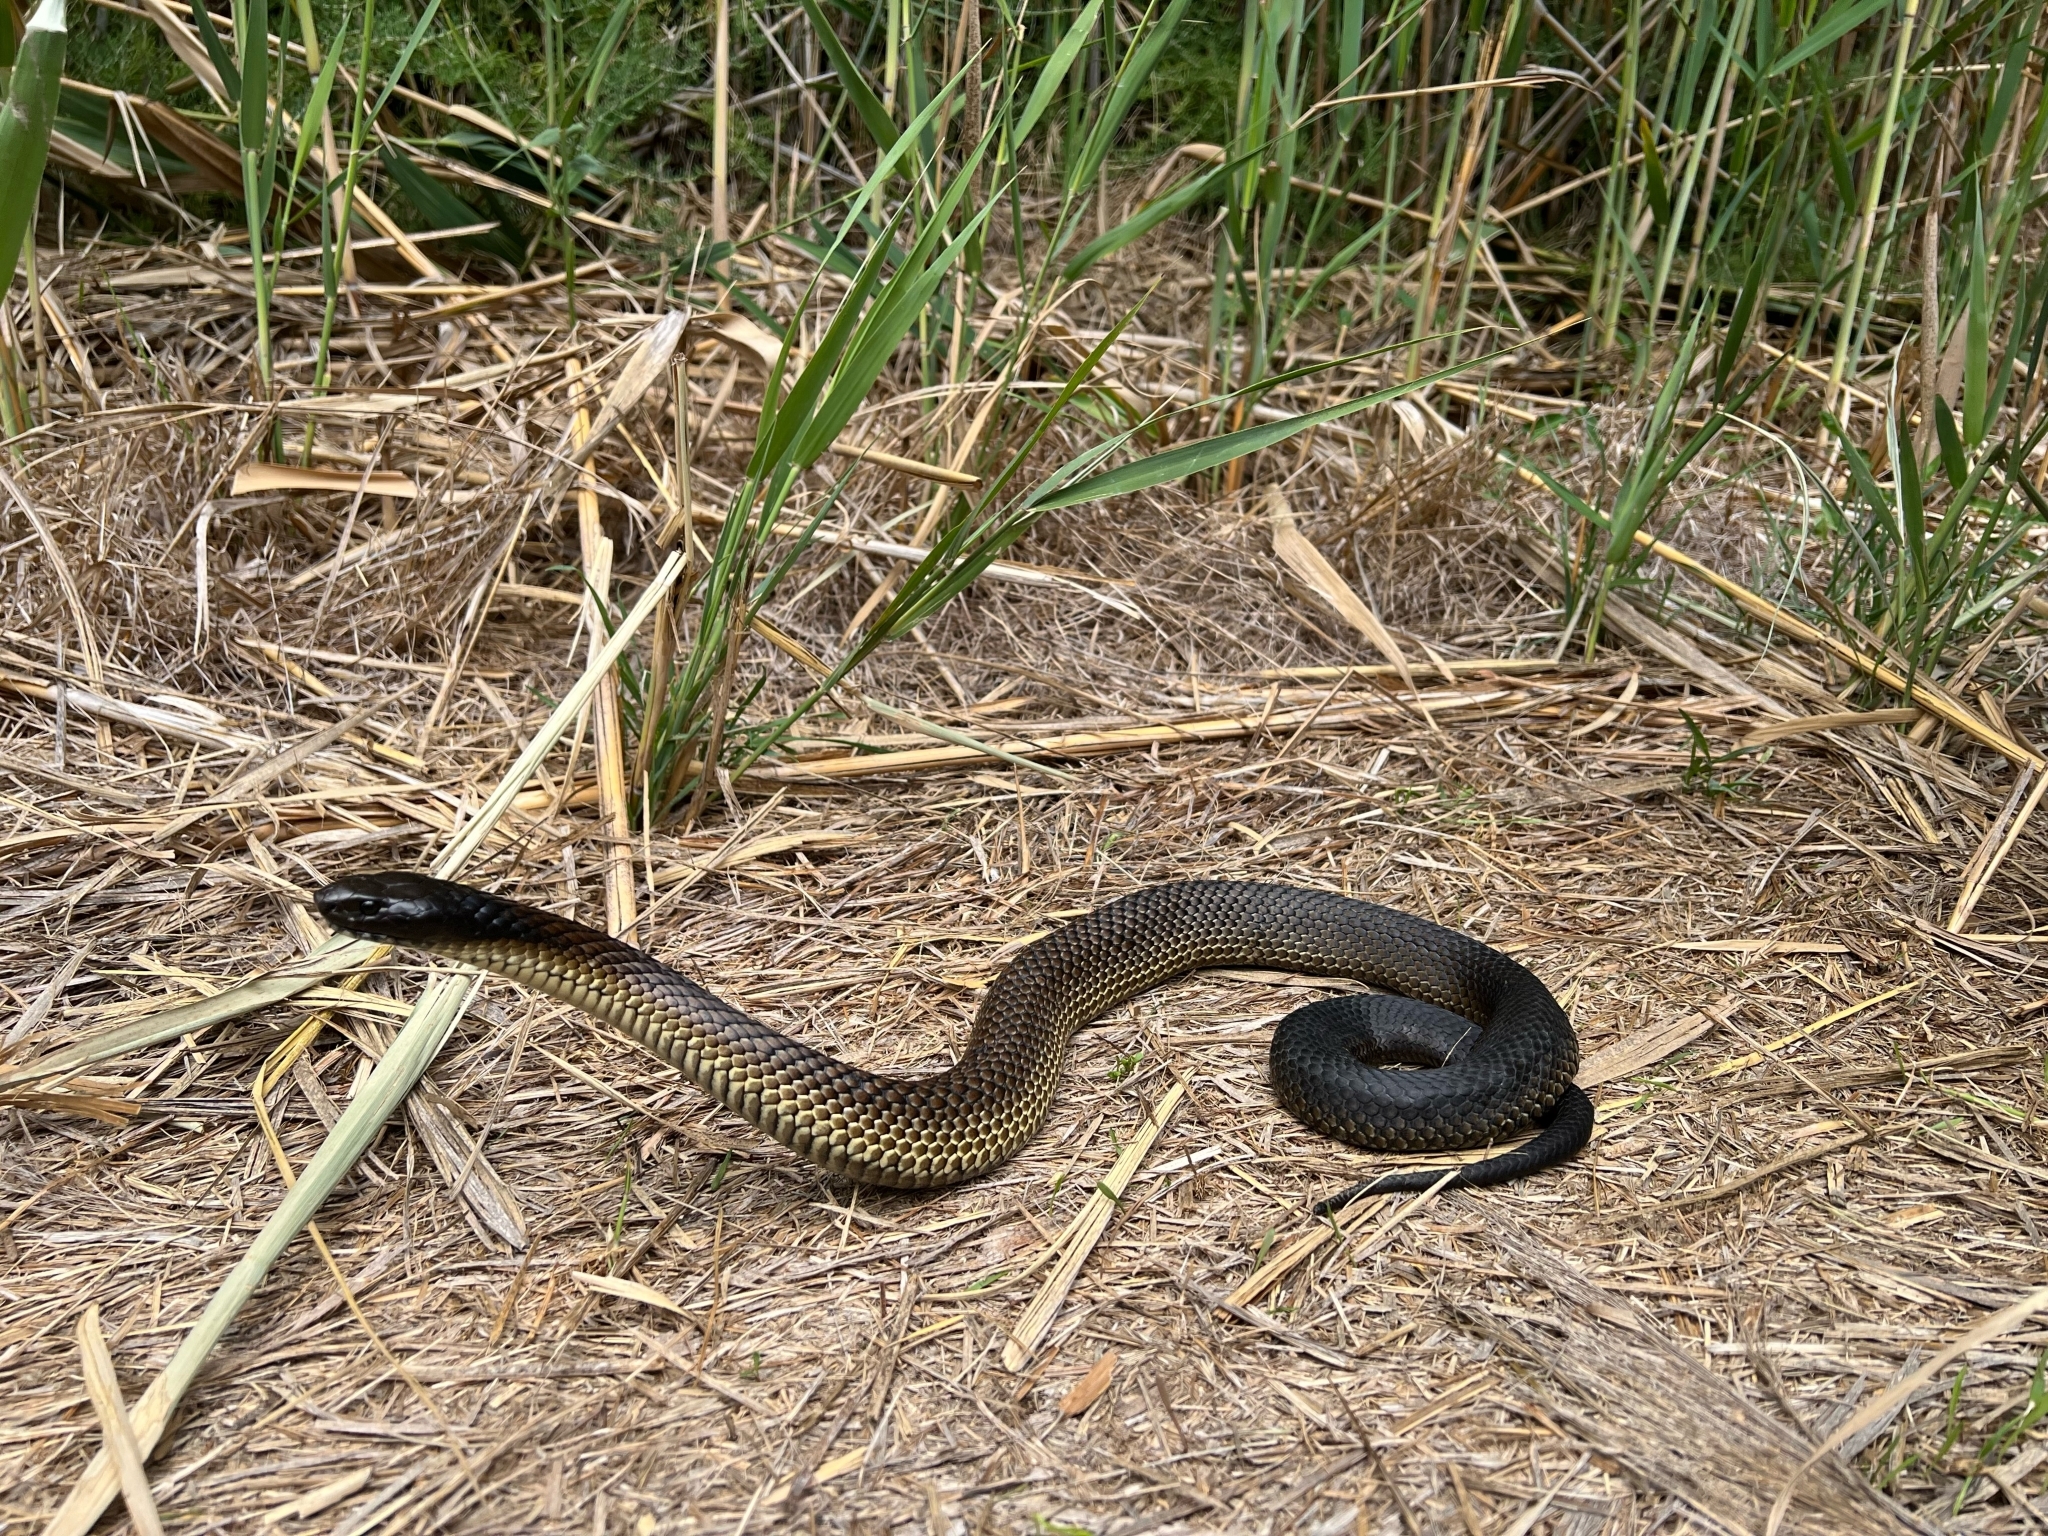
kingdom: Animalia
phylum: Chordata
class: Squamata
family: Elapidae
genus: Notechis
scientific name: Notechis scutatus
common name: Mainland tiger snake
